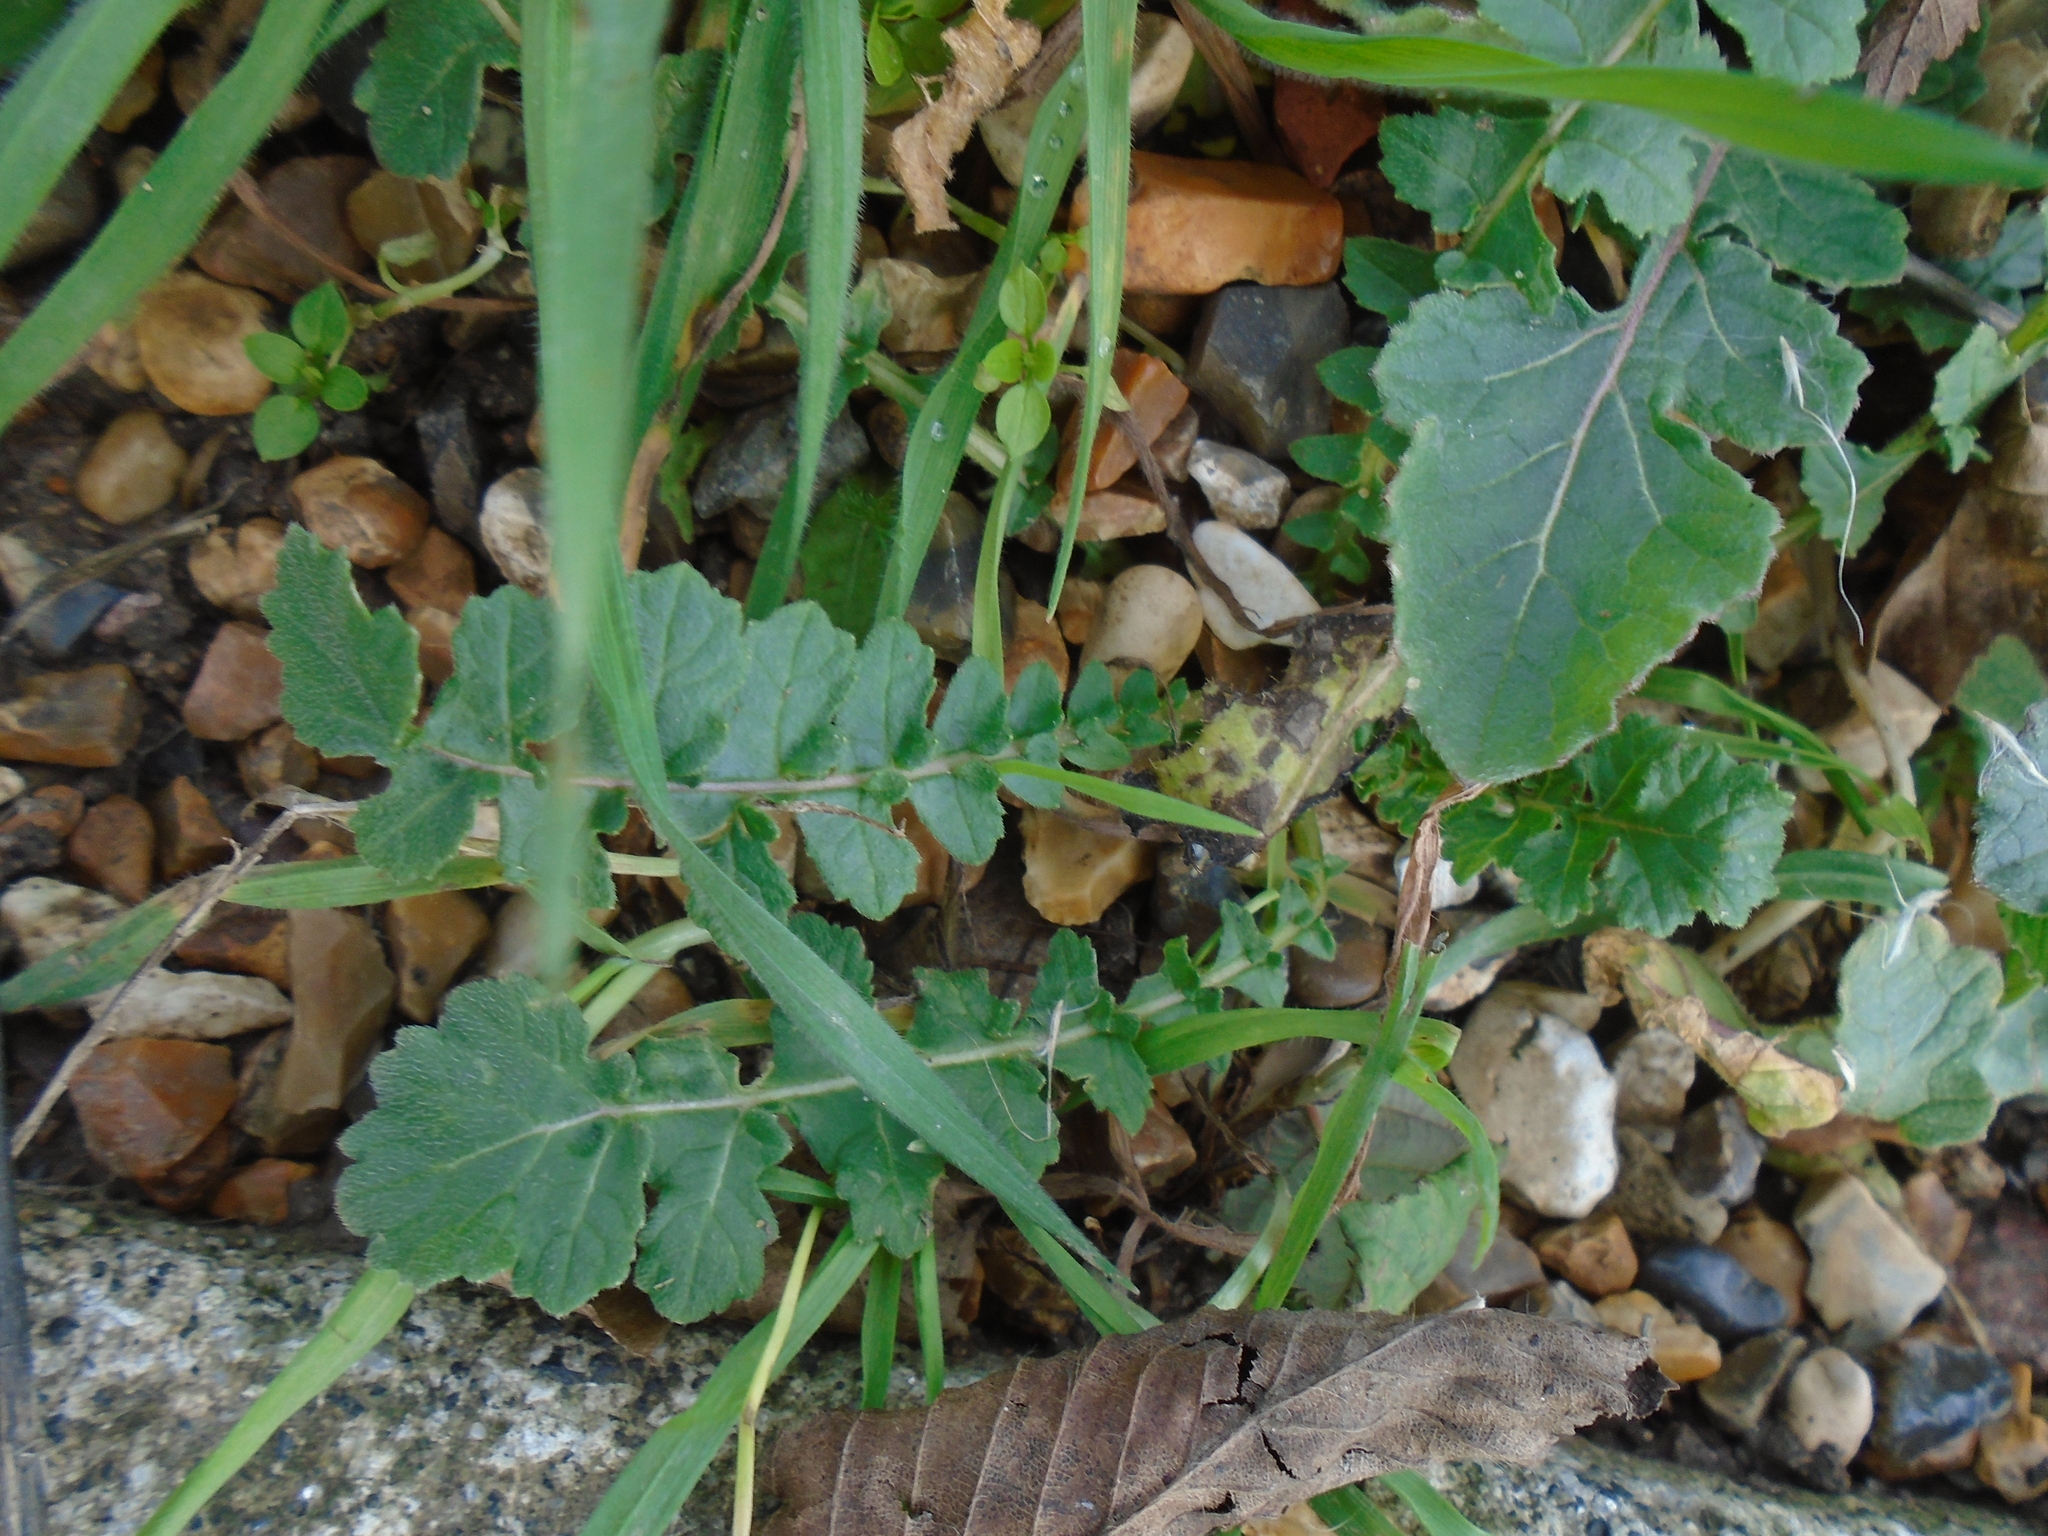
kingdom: Plantae
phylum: Tracheophyta
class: Magnoliopsida
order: Brassicales
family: Brassicaceae
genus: Hirschfeldia
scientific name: Hirschfeldia incana
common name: Hoary mustard
